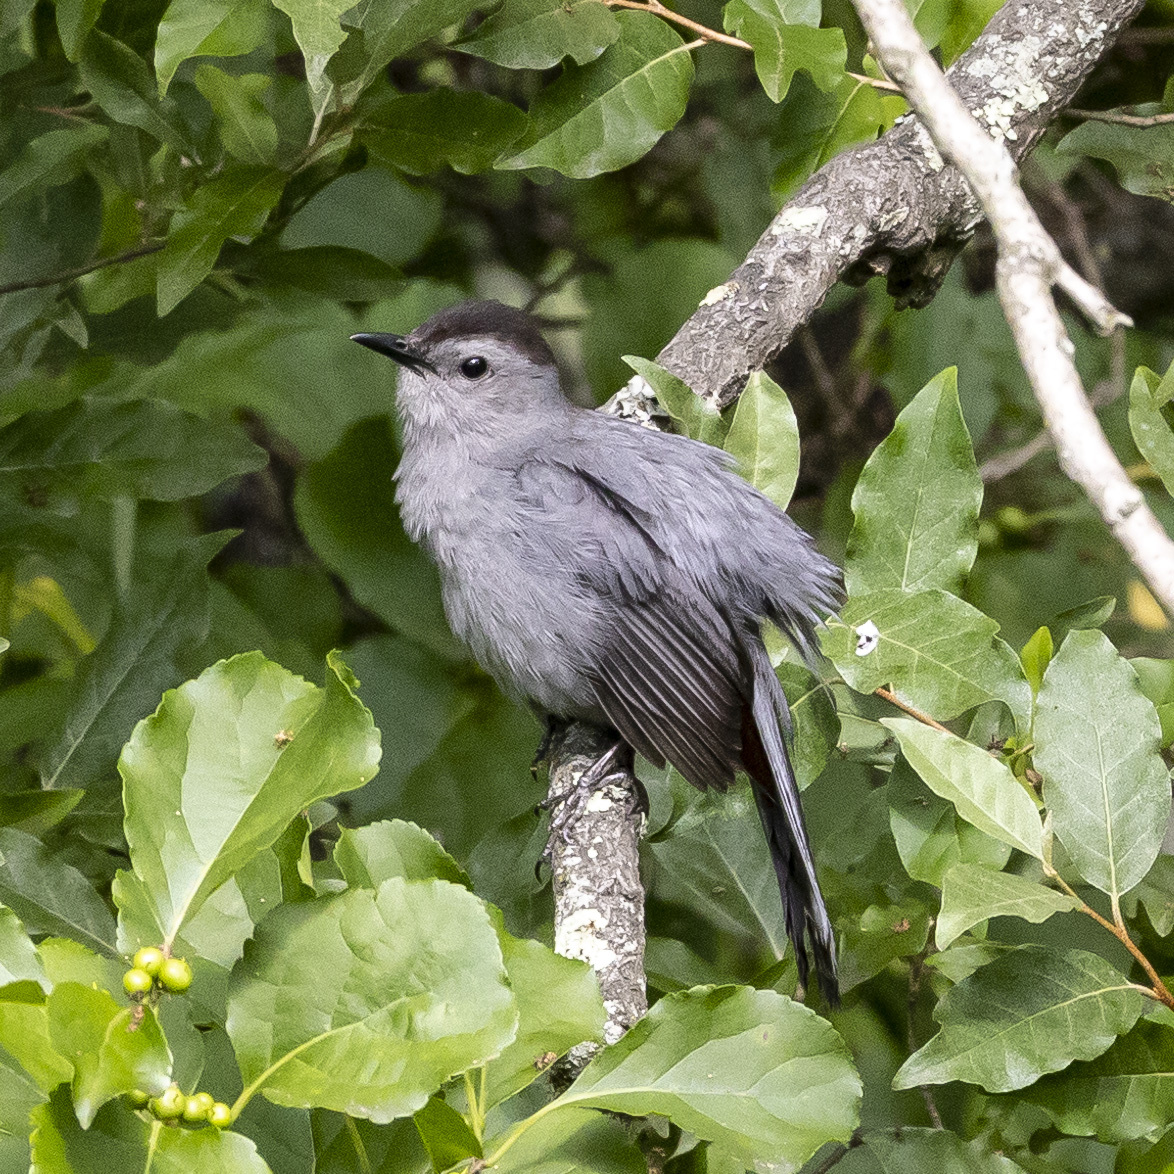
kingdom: Animalia
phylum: Chordata
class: Aves
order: Passeriformes
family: Mimidae
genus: Dumetella
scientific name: Dumetella carolinensis
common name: Gray catbird
